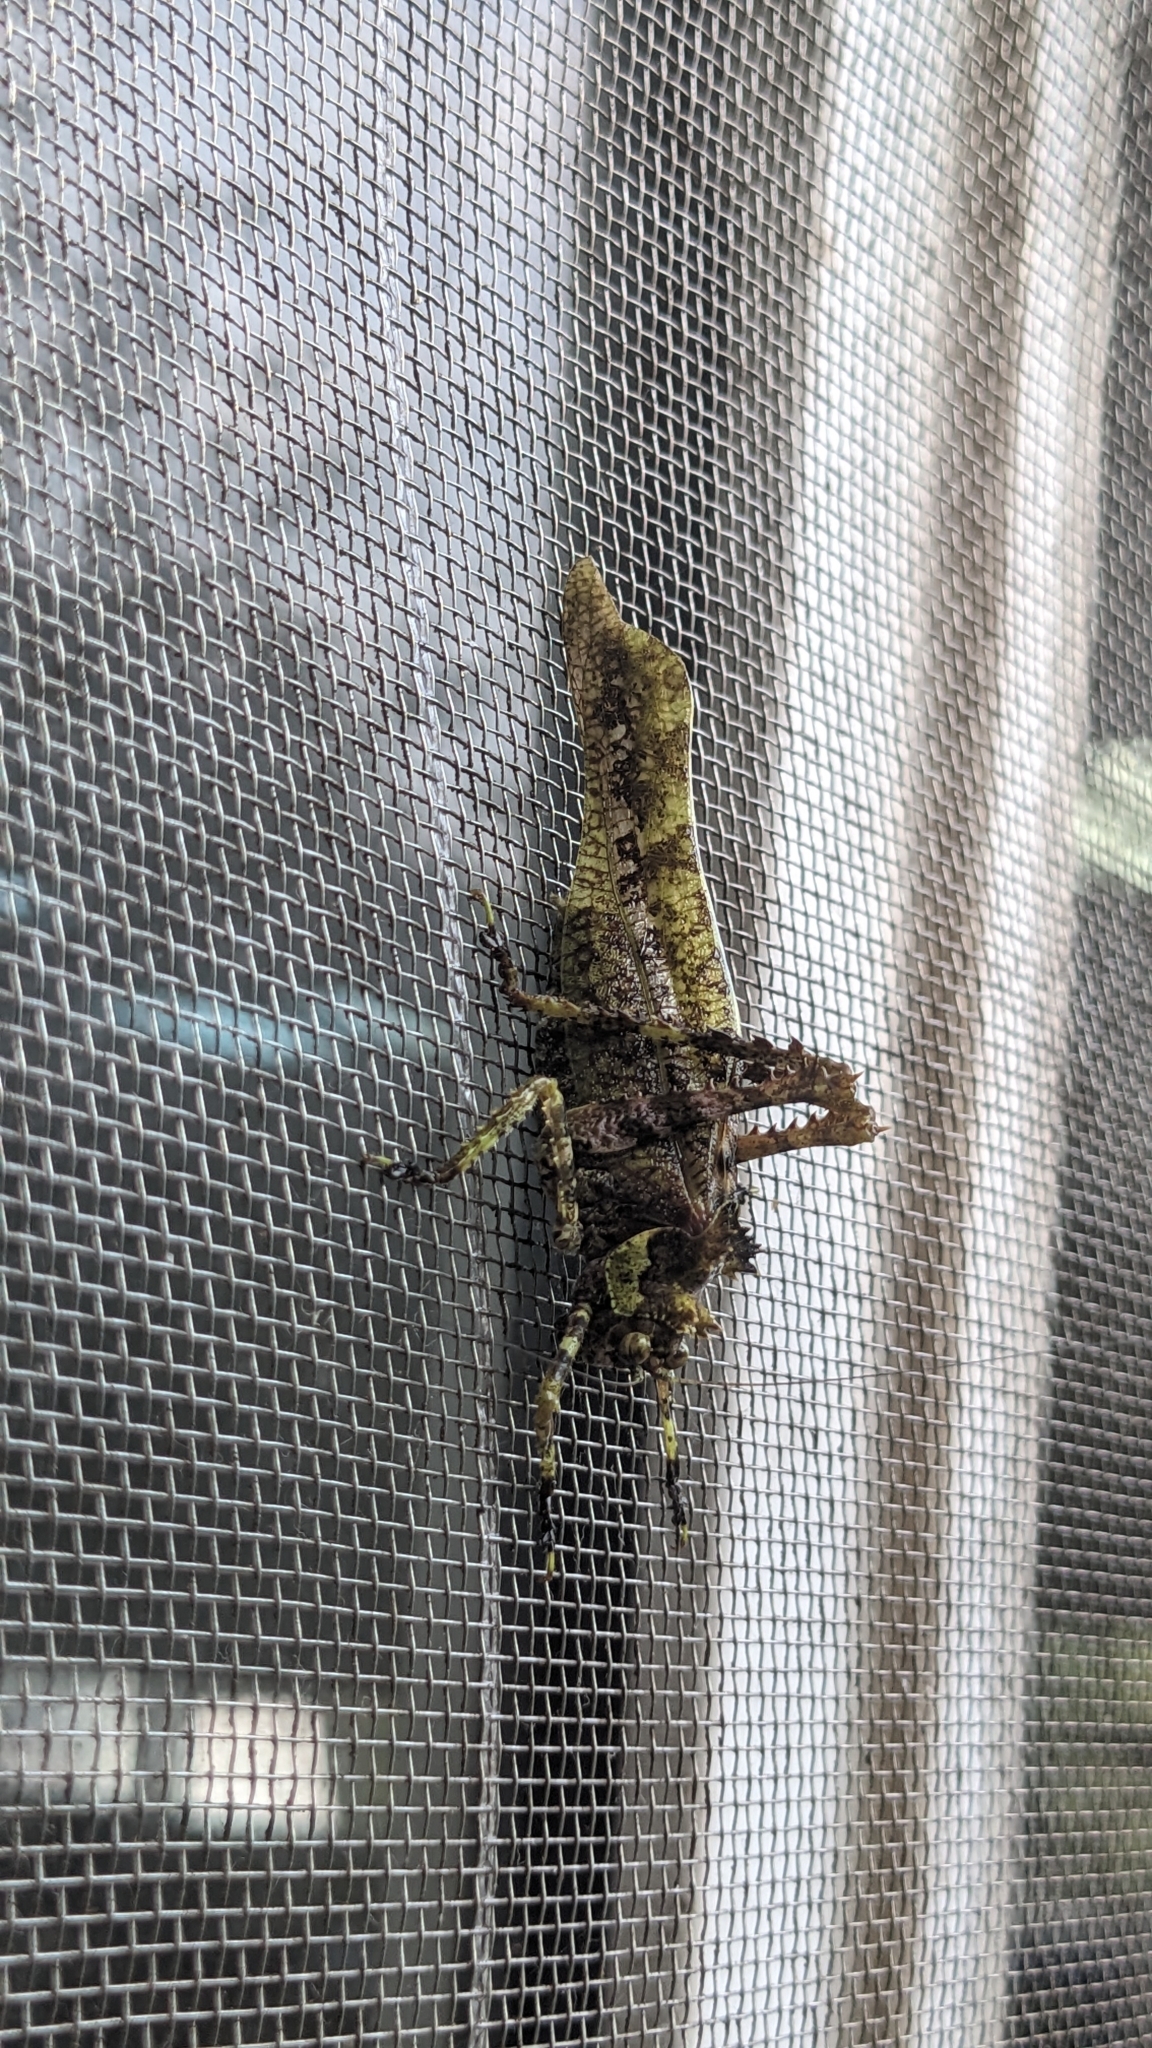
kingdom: Animalia
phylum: Arthropoda
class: Insecta
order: Orthoptera
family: Tettigoniidae
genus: Trachyzulpha
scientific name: Trachyzulpha formosana
